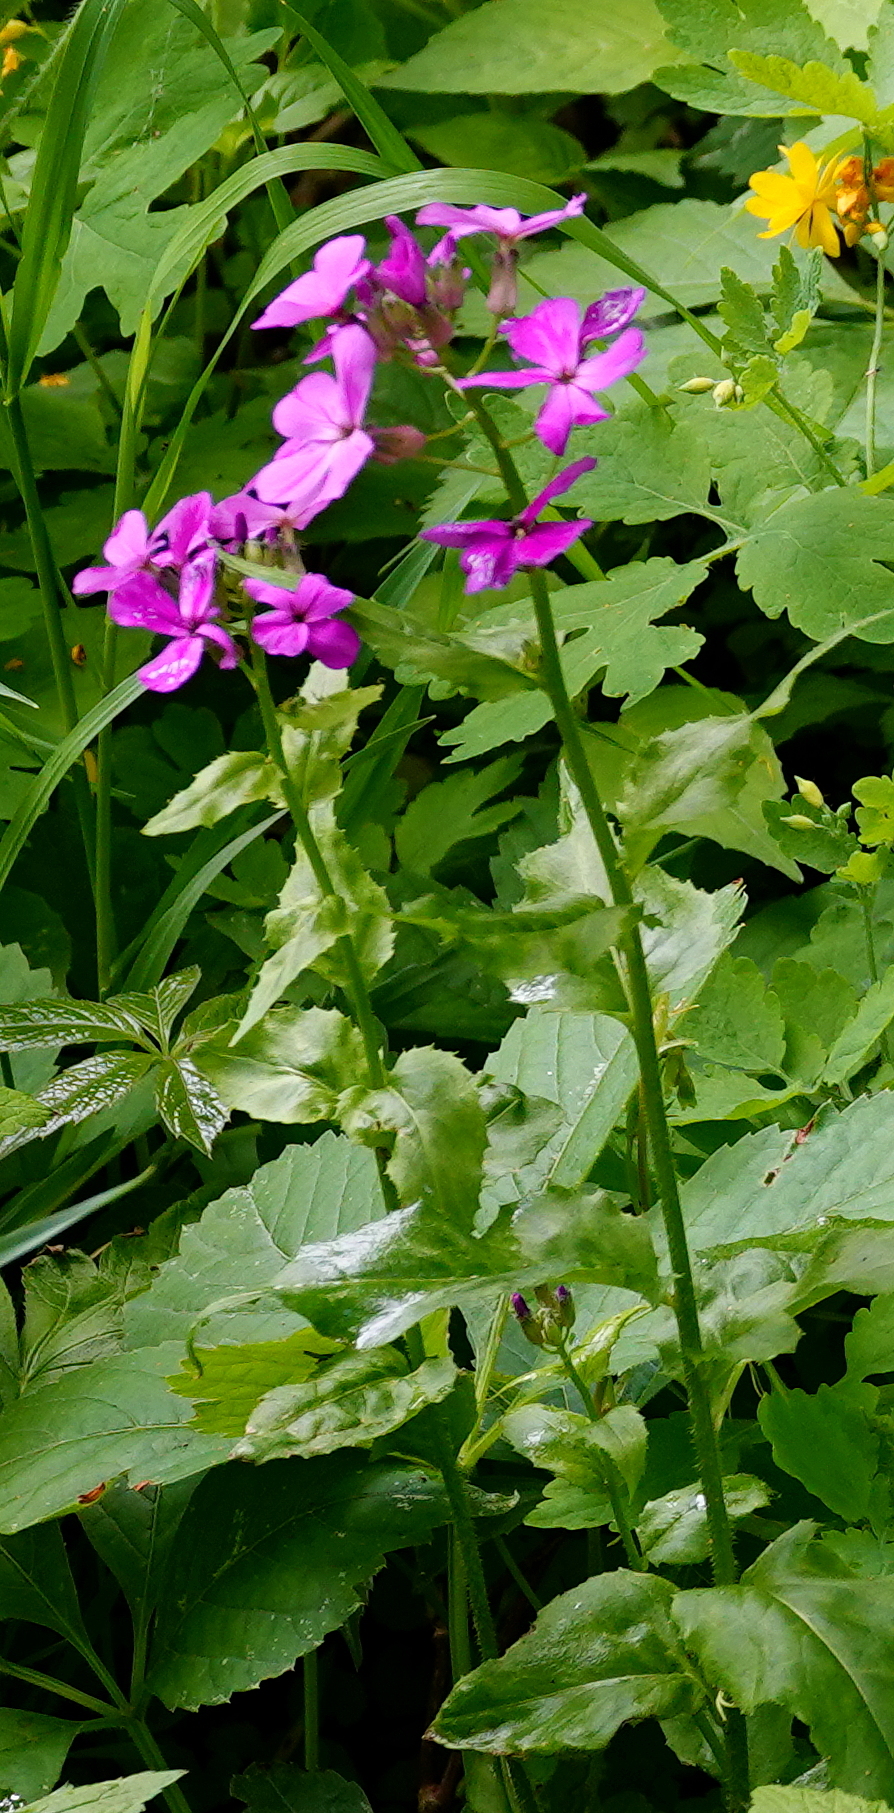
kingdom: Plantae
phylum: Tracheophyta
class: Magnoliopsida
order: Brassicales
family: Brassicaceae
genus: Hesperis
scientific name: Hesperis matronalis
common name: Dame's-violet
